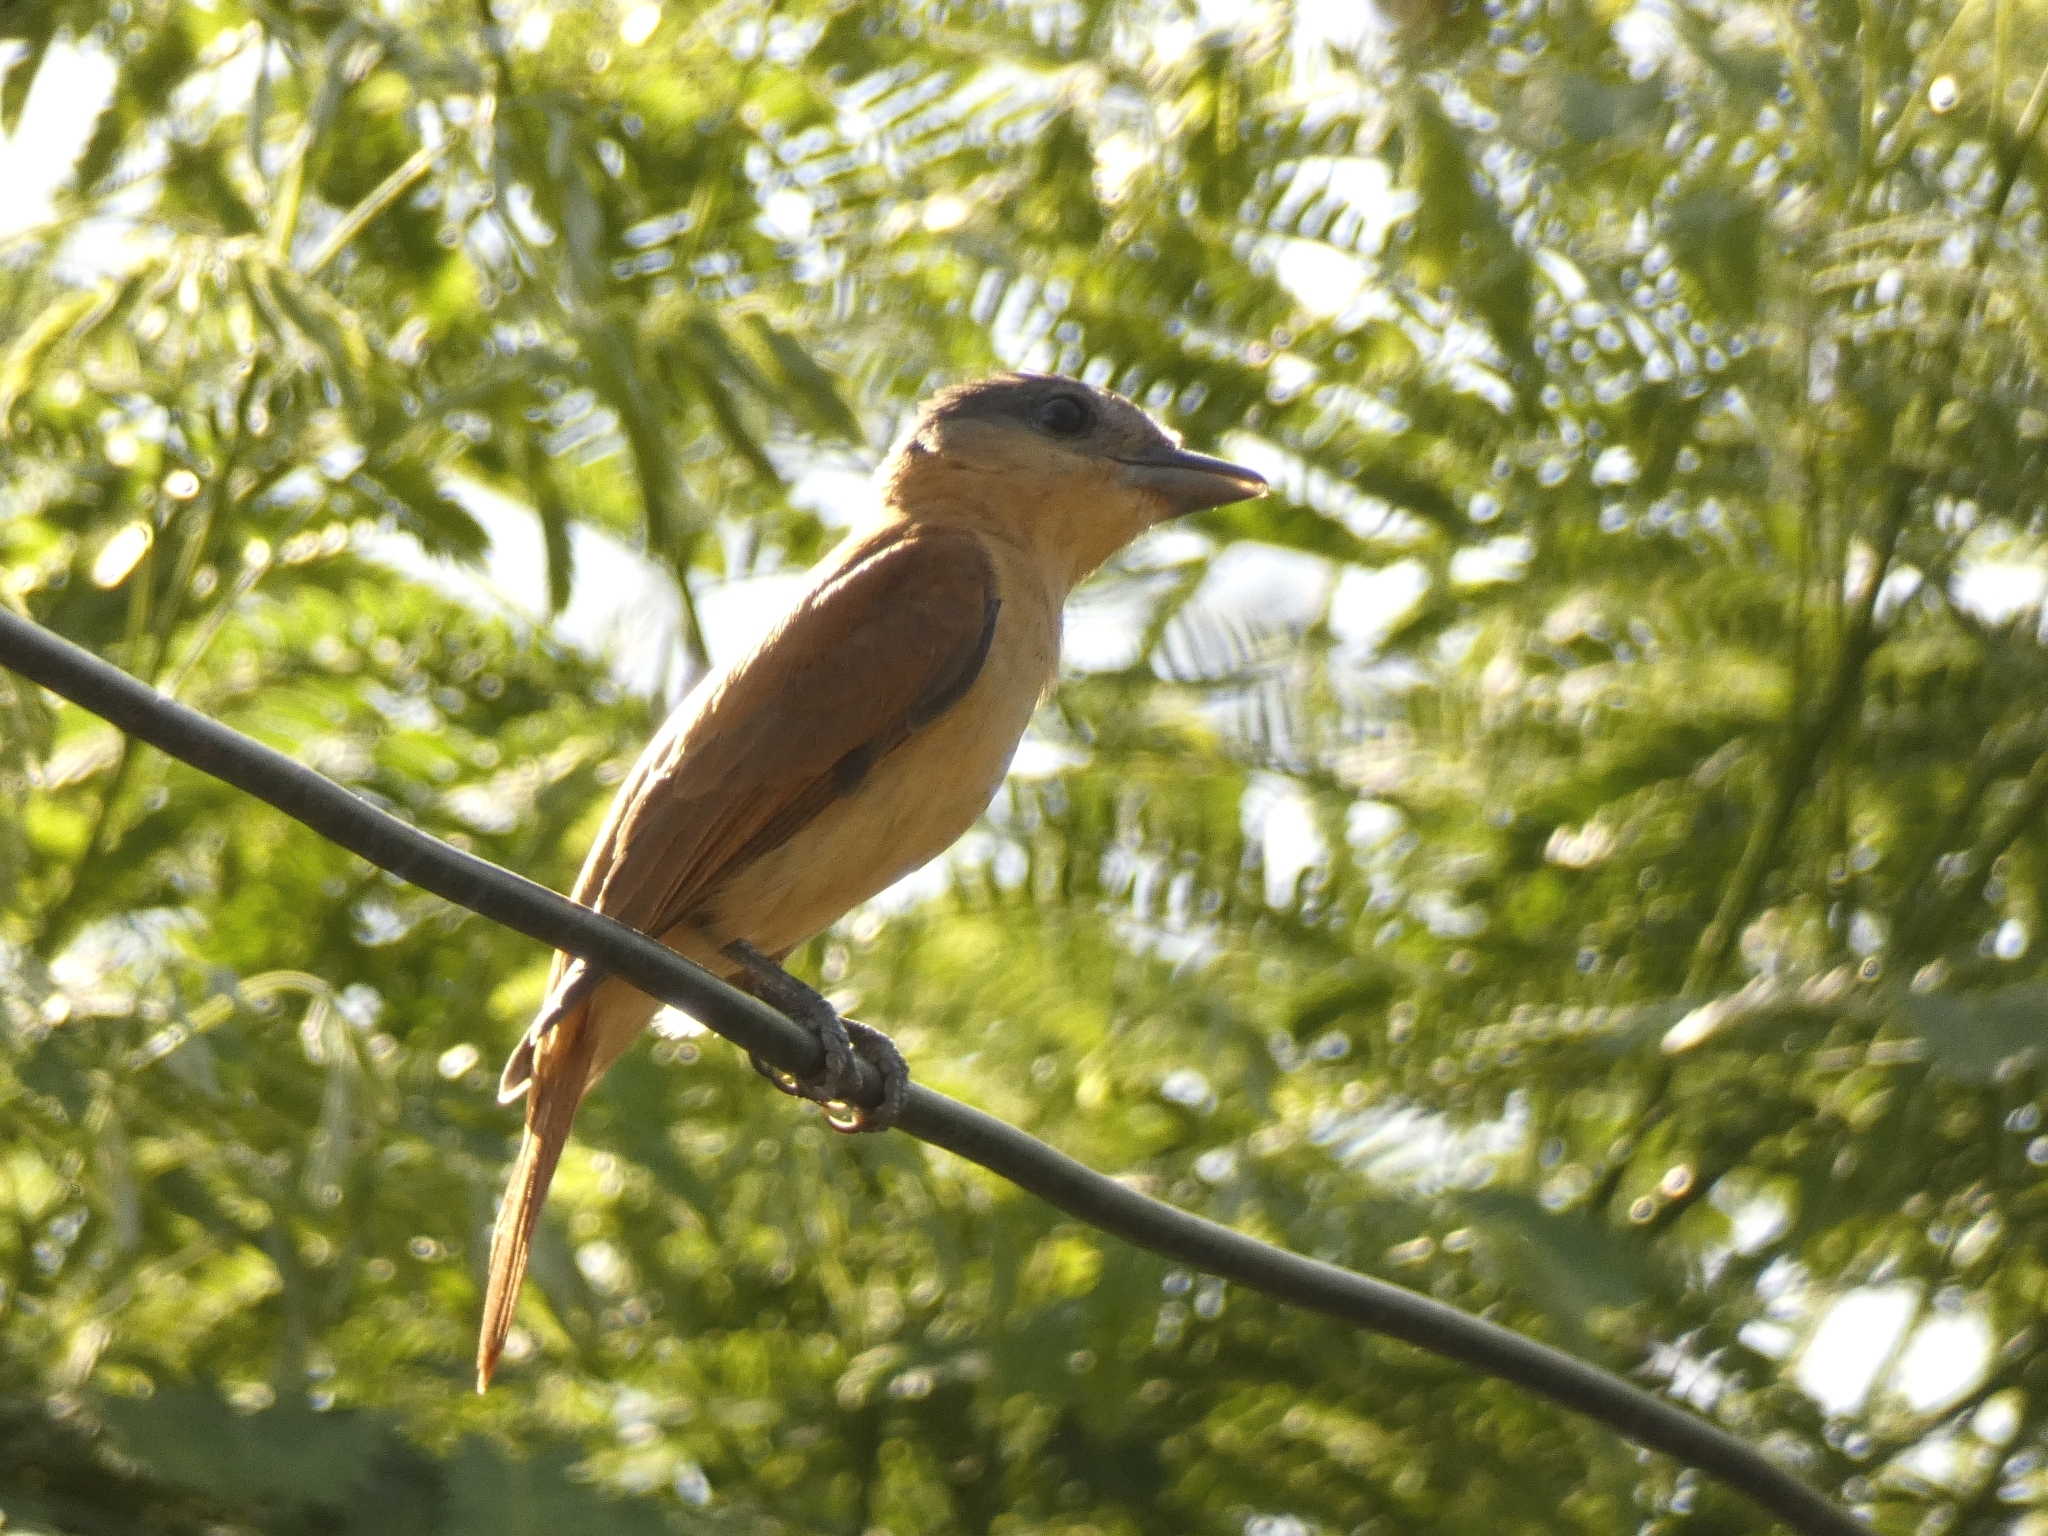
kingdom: Animalia
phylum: Chordata
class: Aves
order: Passeriformes
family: Cotingidae
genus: Pachyramphus
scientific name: Pachyramphus validus
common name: Crested becard
